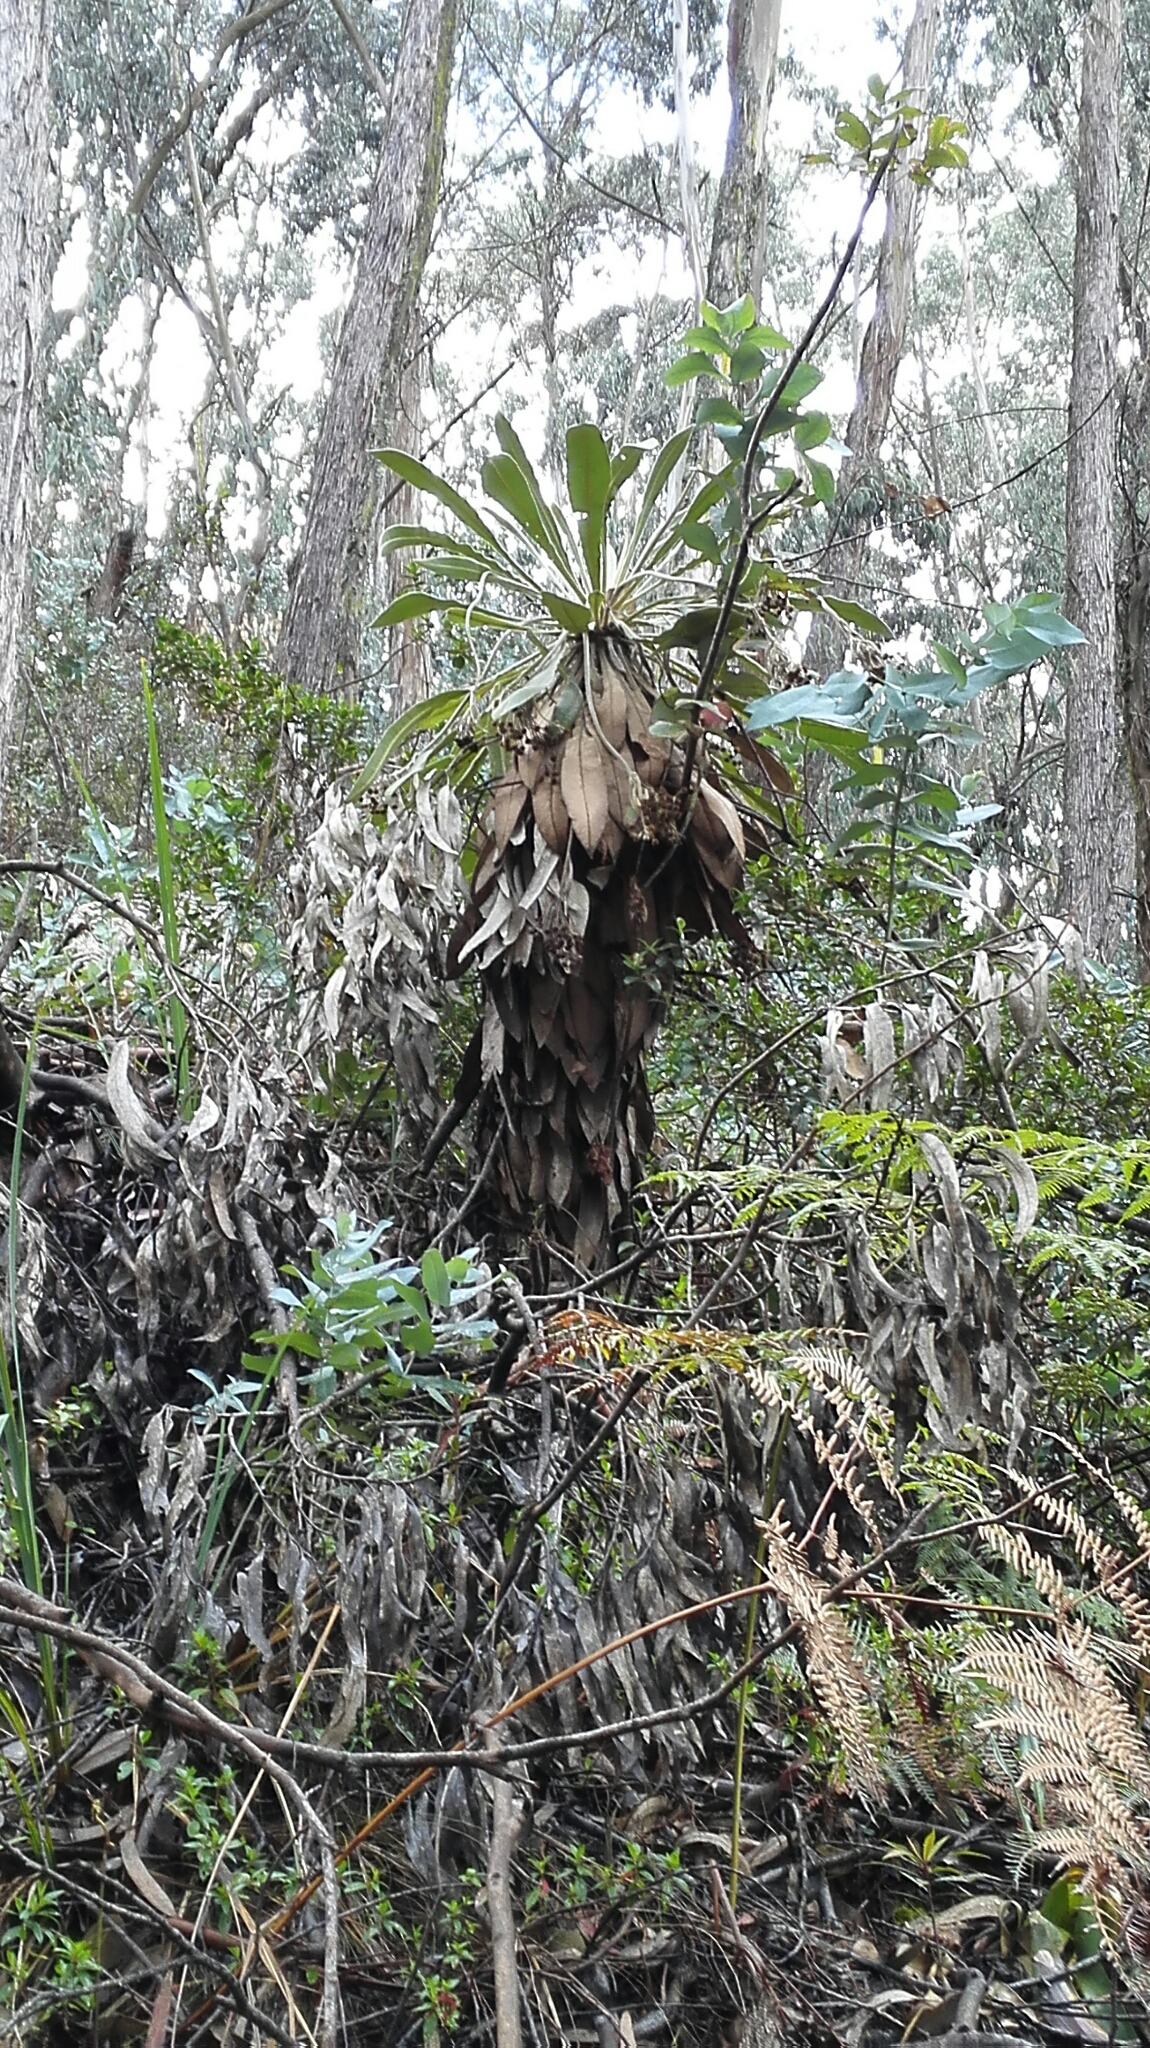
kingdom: Plantae
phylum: Tracheophyta
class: Magnoliopsida
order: Asterales
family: Asteraceae
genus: Espeletia
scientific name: Espeletia corymbosa
